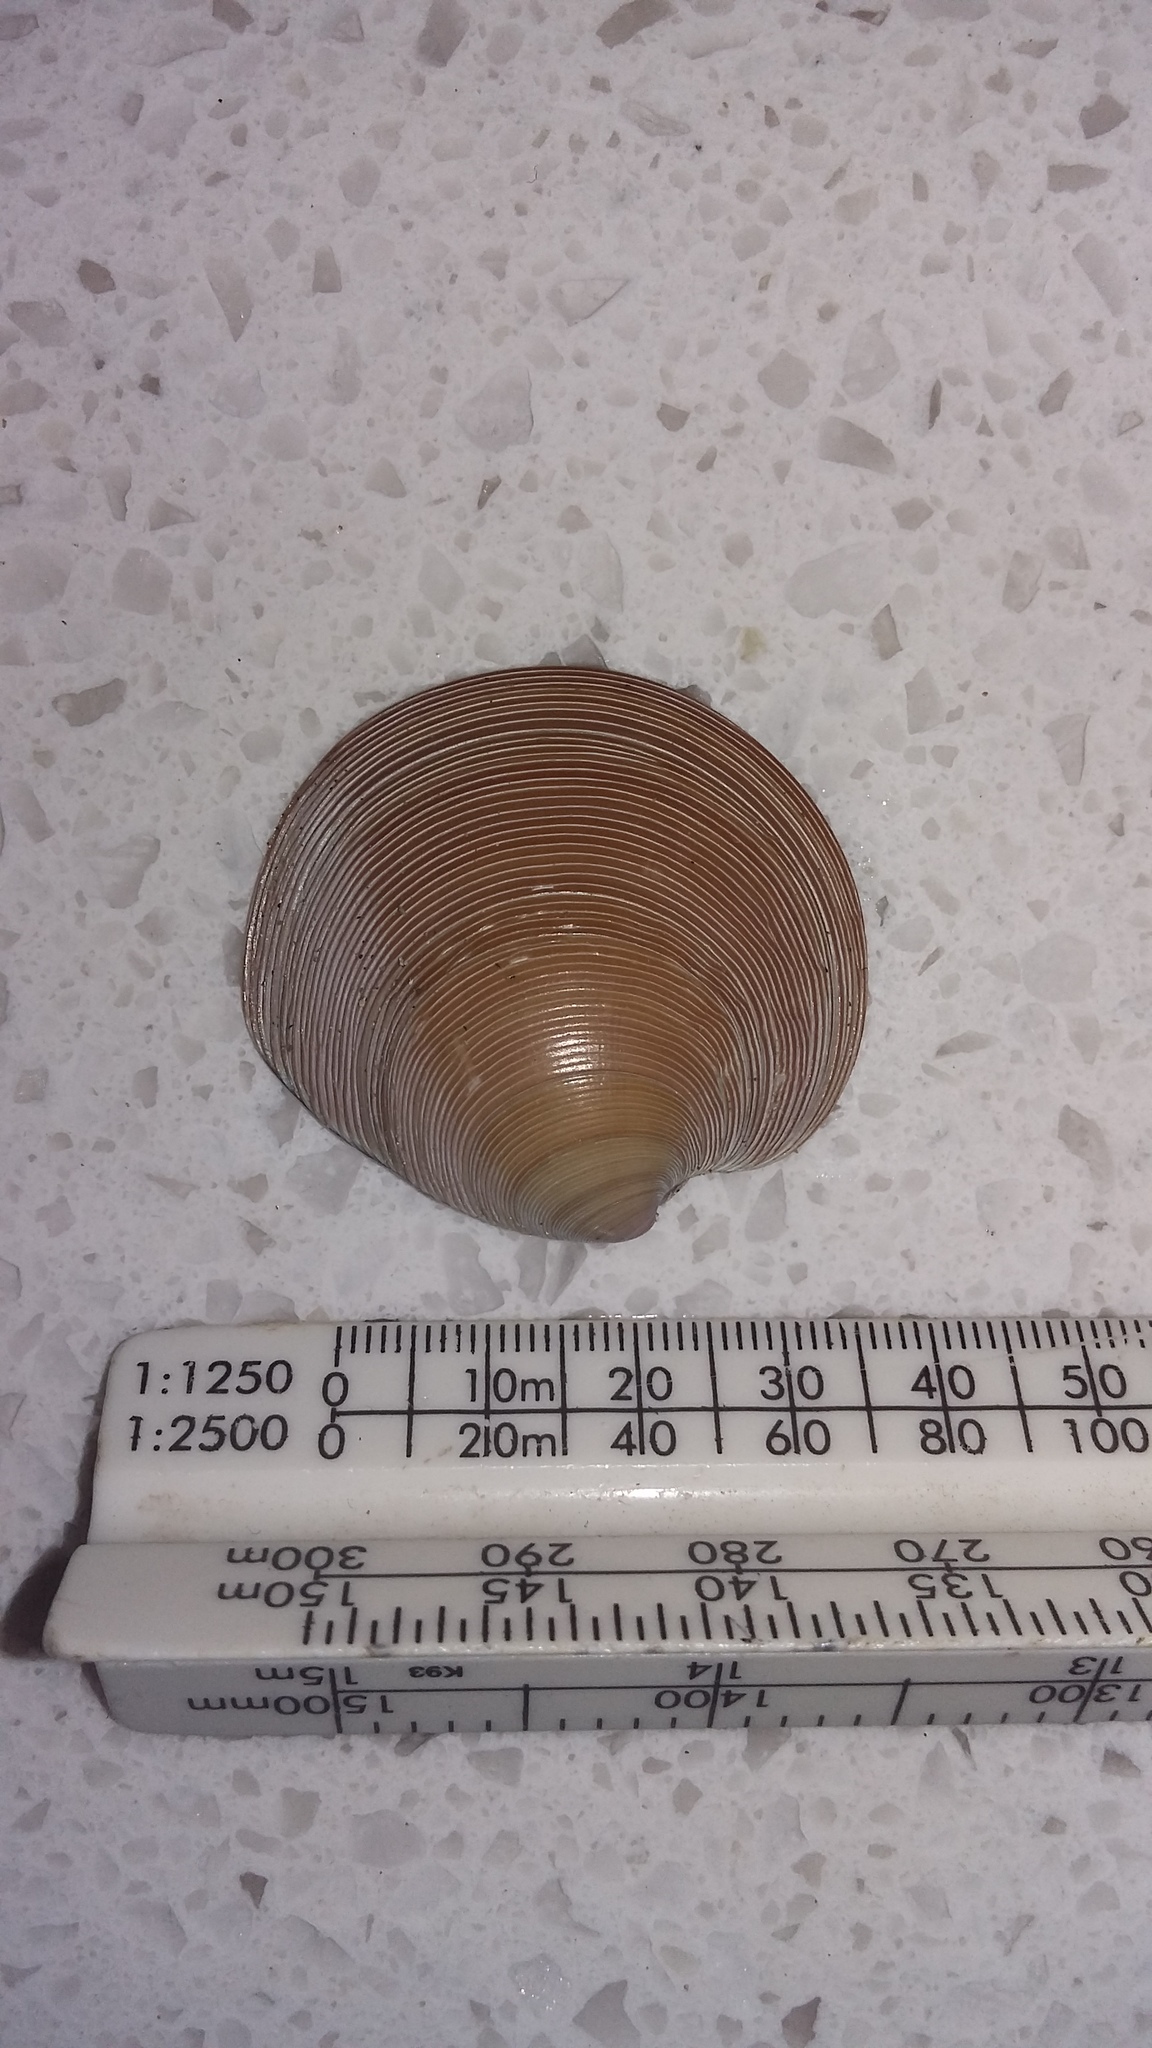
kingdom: Animalia
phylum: Mollusca
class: Bivalvia
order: Venerida
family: Veneridae
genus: Dosinia
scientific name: Dosinia anus
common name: Old-woman dosinia
